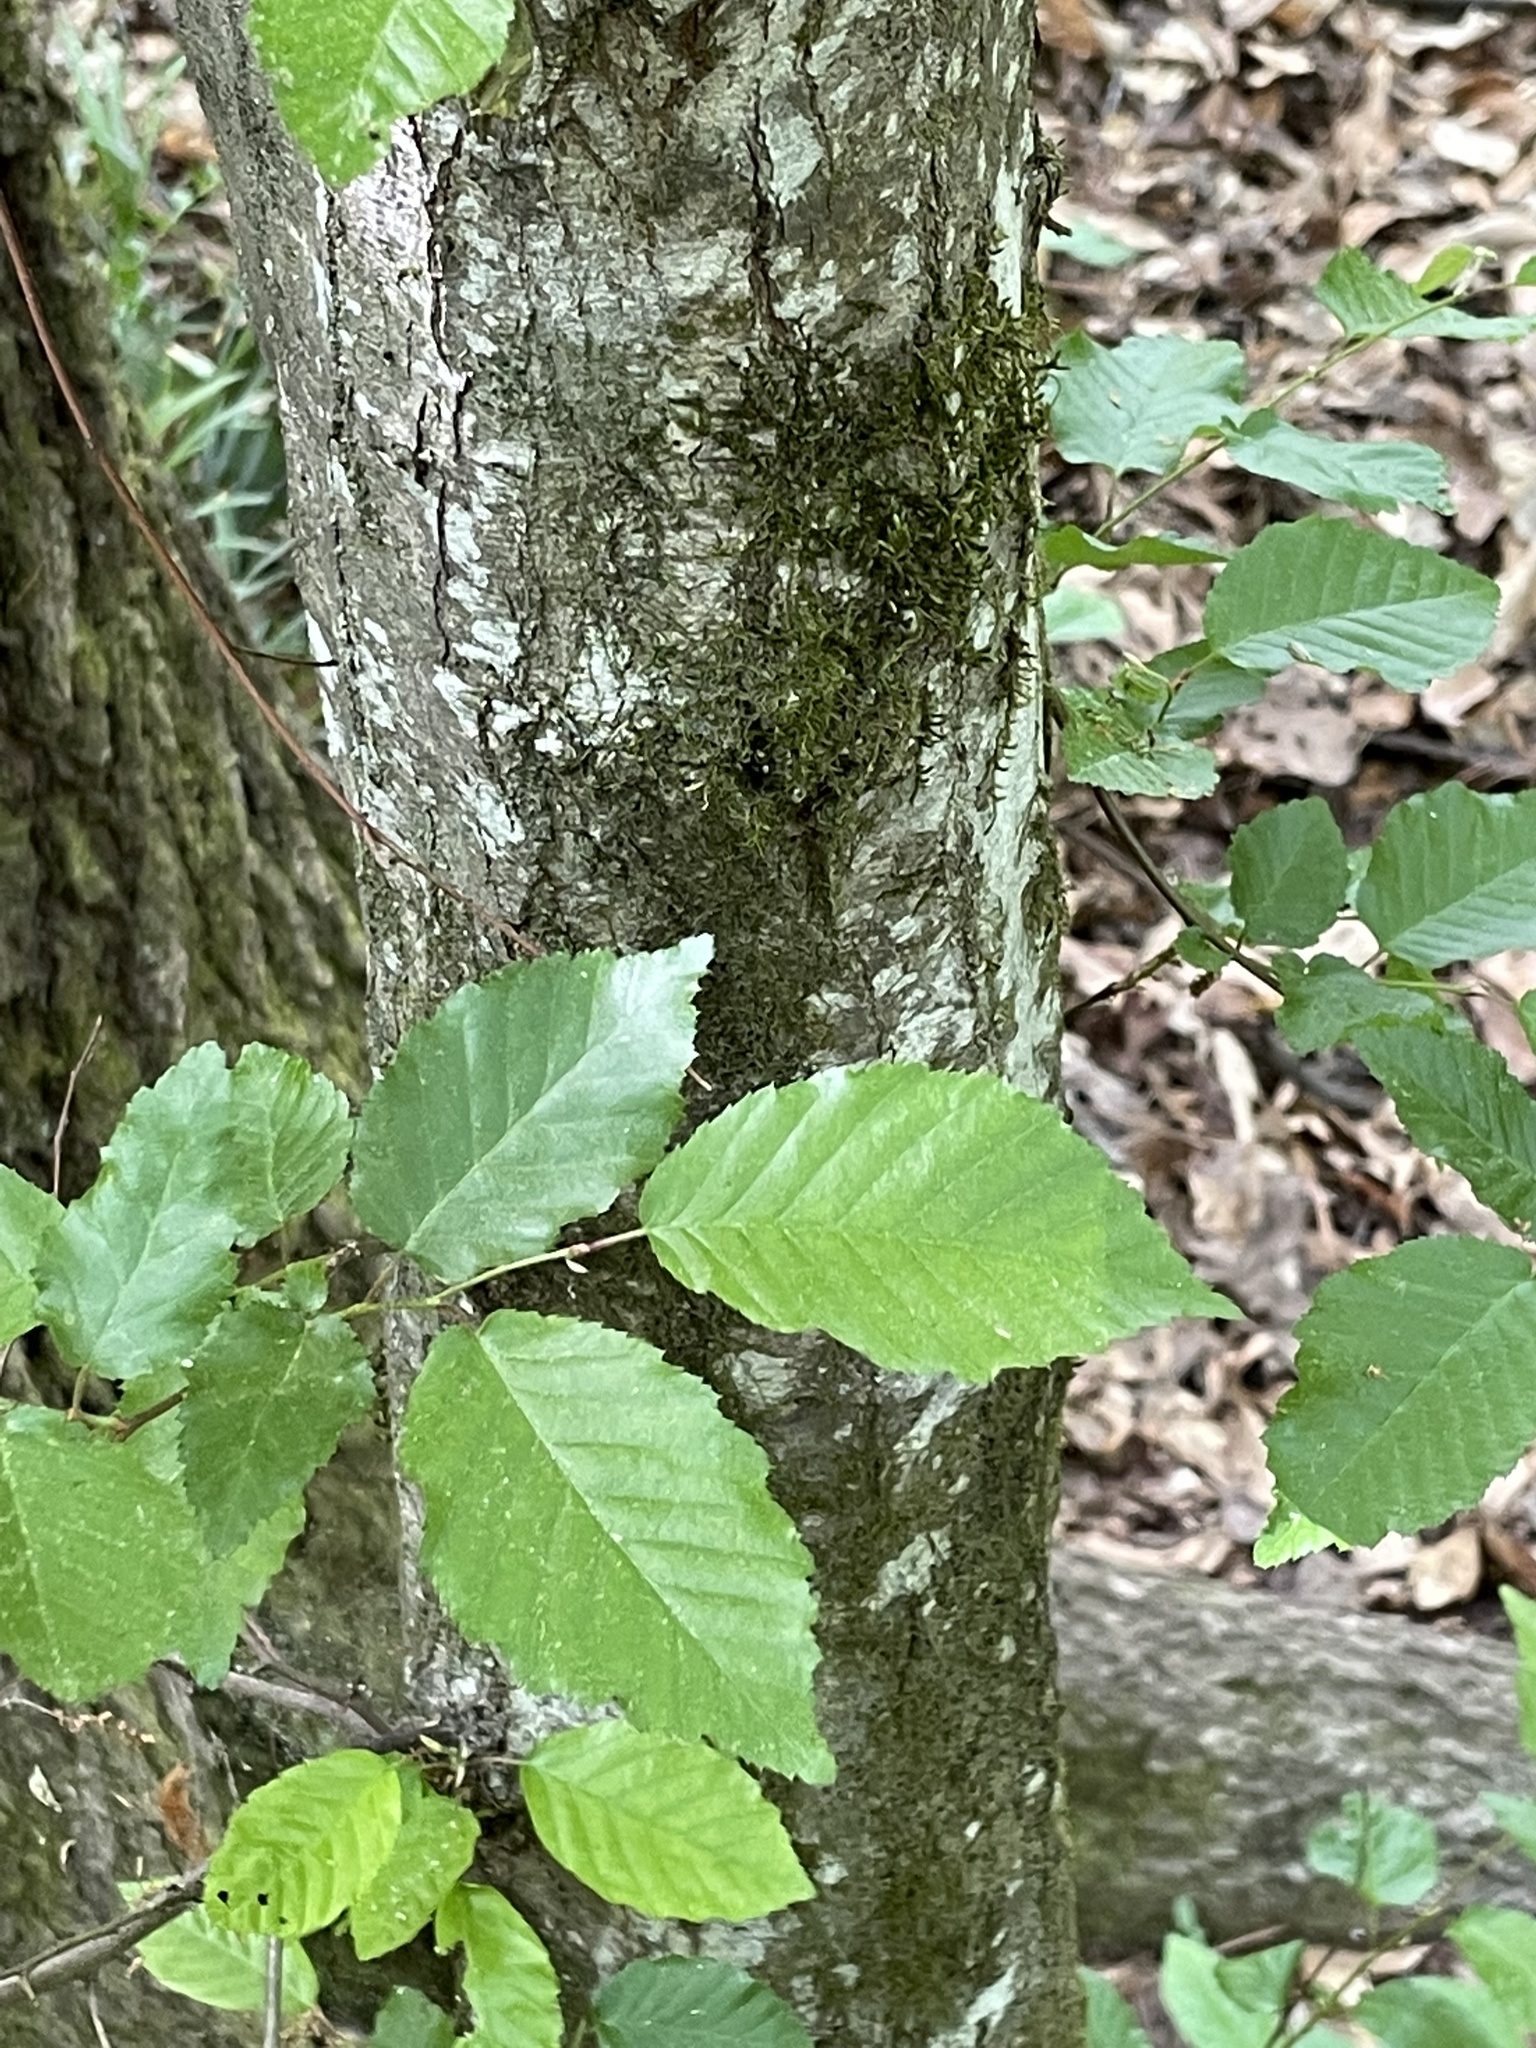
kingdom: Plantae
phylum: Tracheophyta
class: Magnoliopsida
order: Fagales
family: Betulaceae
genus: Carpinus
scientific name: Carpinus caroliniana
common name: American hornbeam
